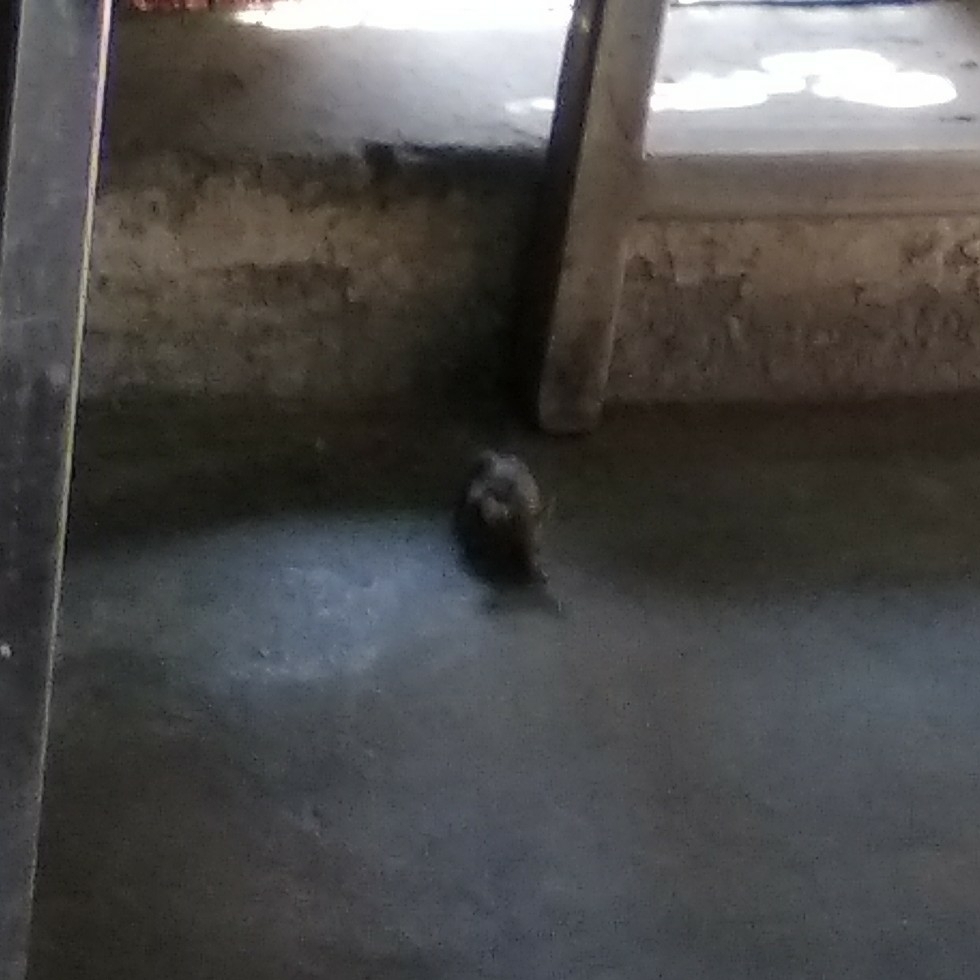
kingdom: Animalia
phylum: Chordata
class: Mammalia
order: Rodentia
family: Muridae
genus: Mus
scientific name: Mus musculus
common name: House mouse
